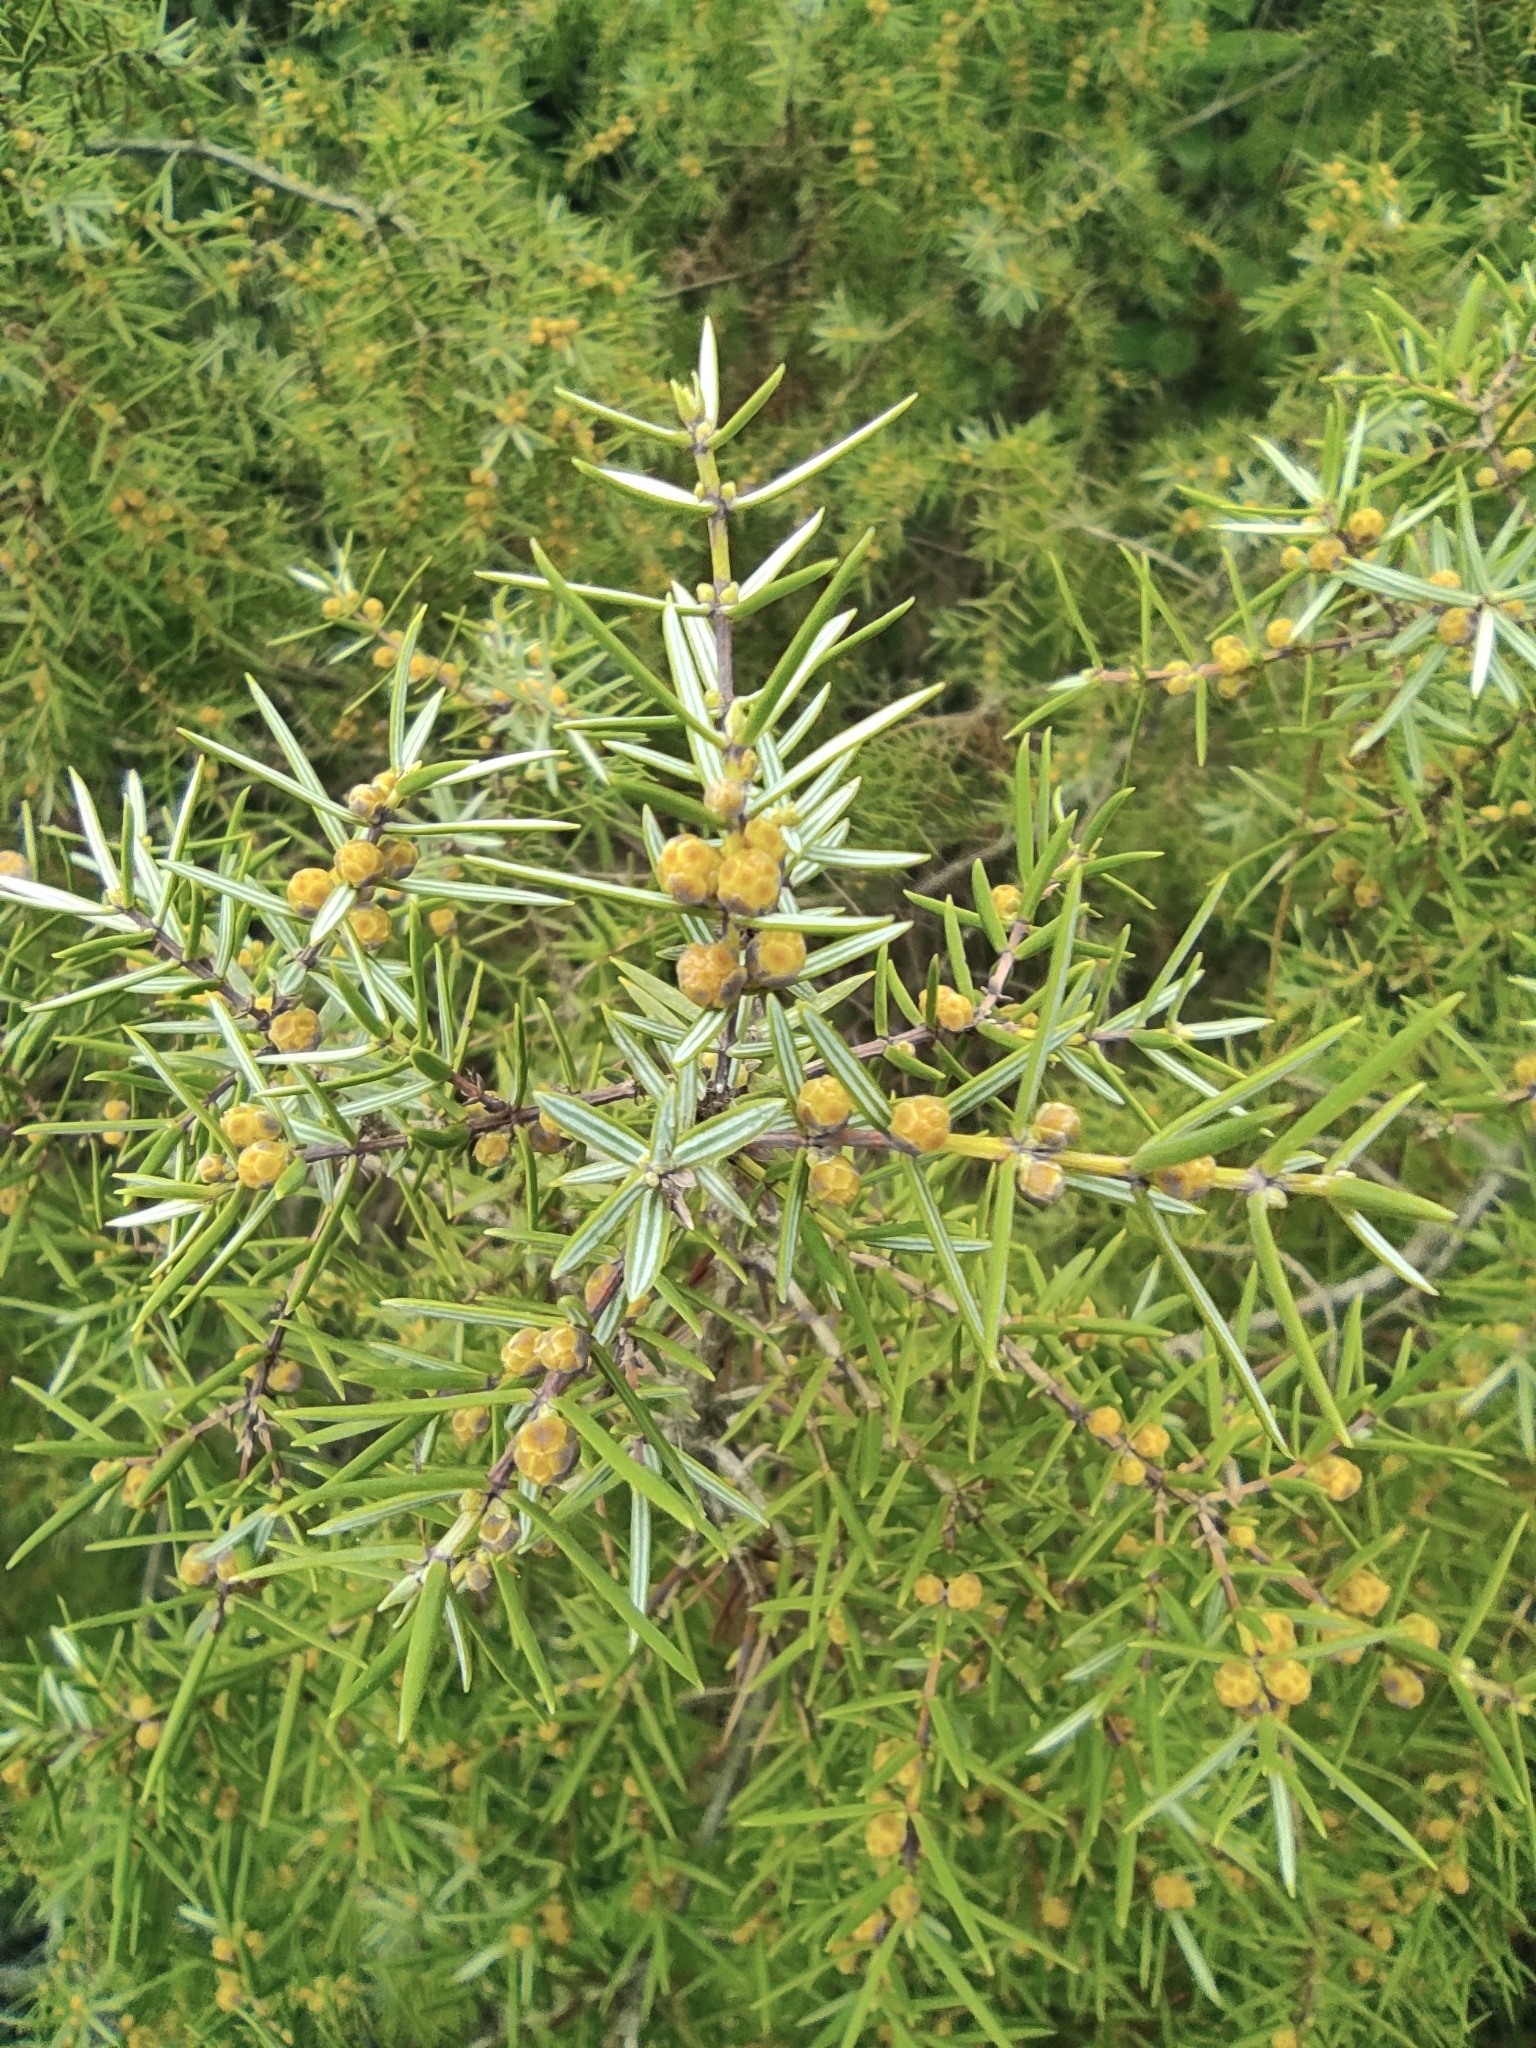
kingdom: Plantae
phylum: Tracheophyta
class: Pinopsida
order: Pinales
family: Cupressaceae
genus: Juniperus
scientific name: Juniperus oxycedrus
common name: Prickly juniper
